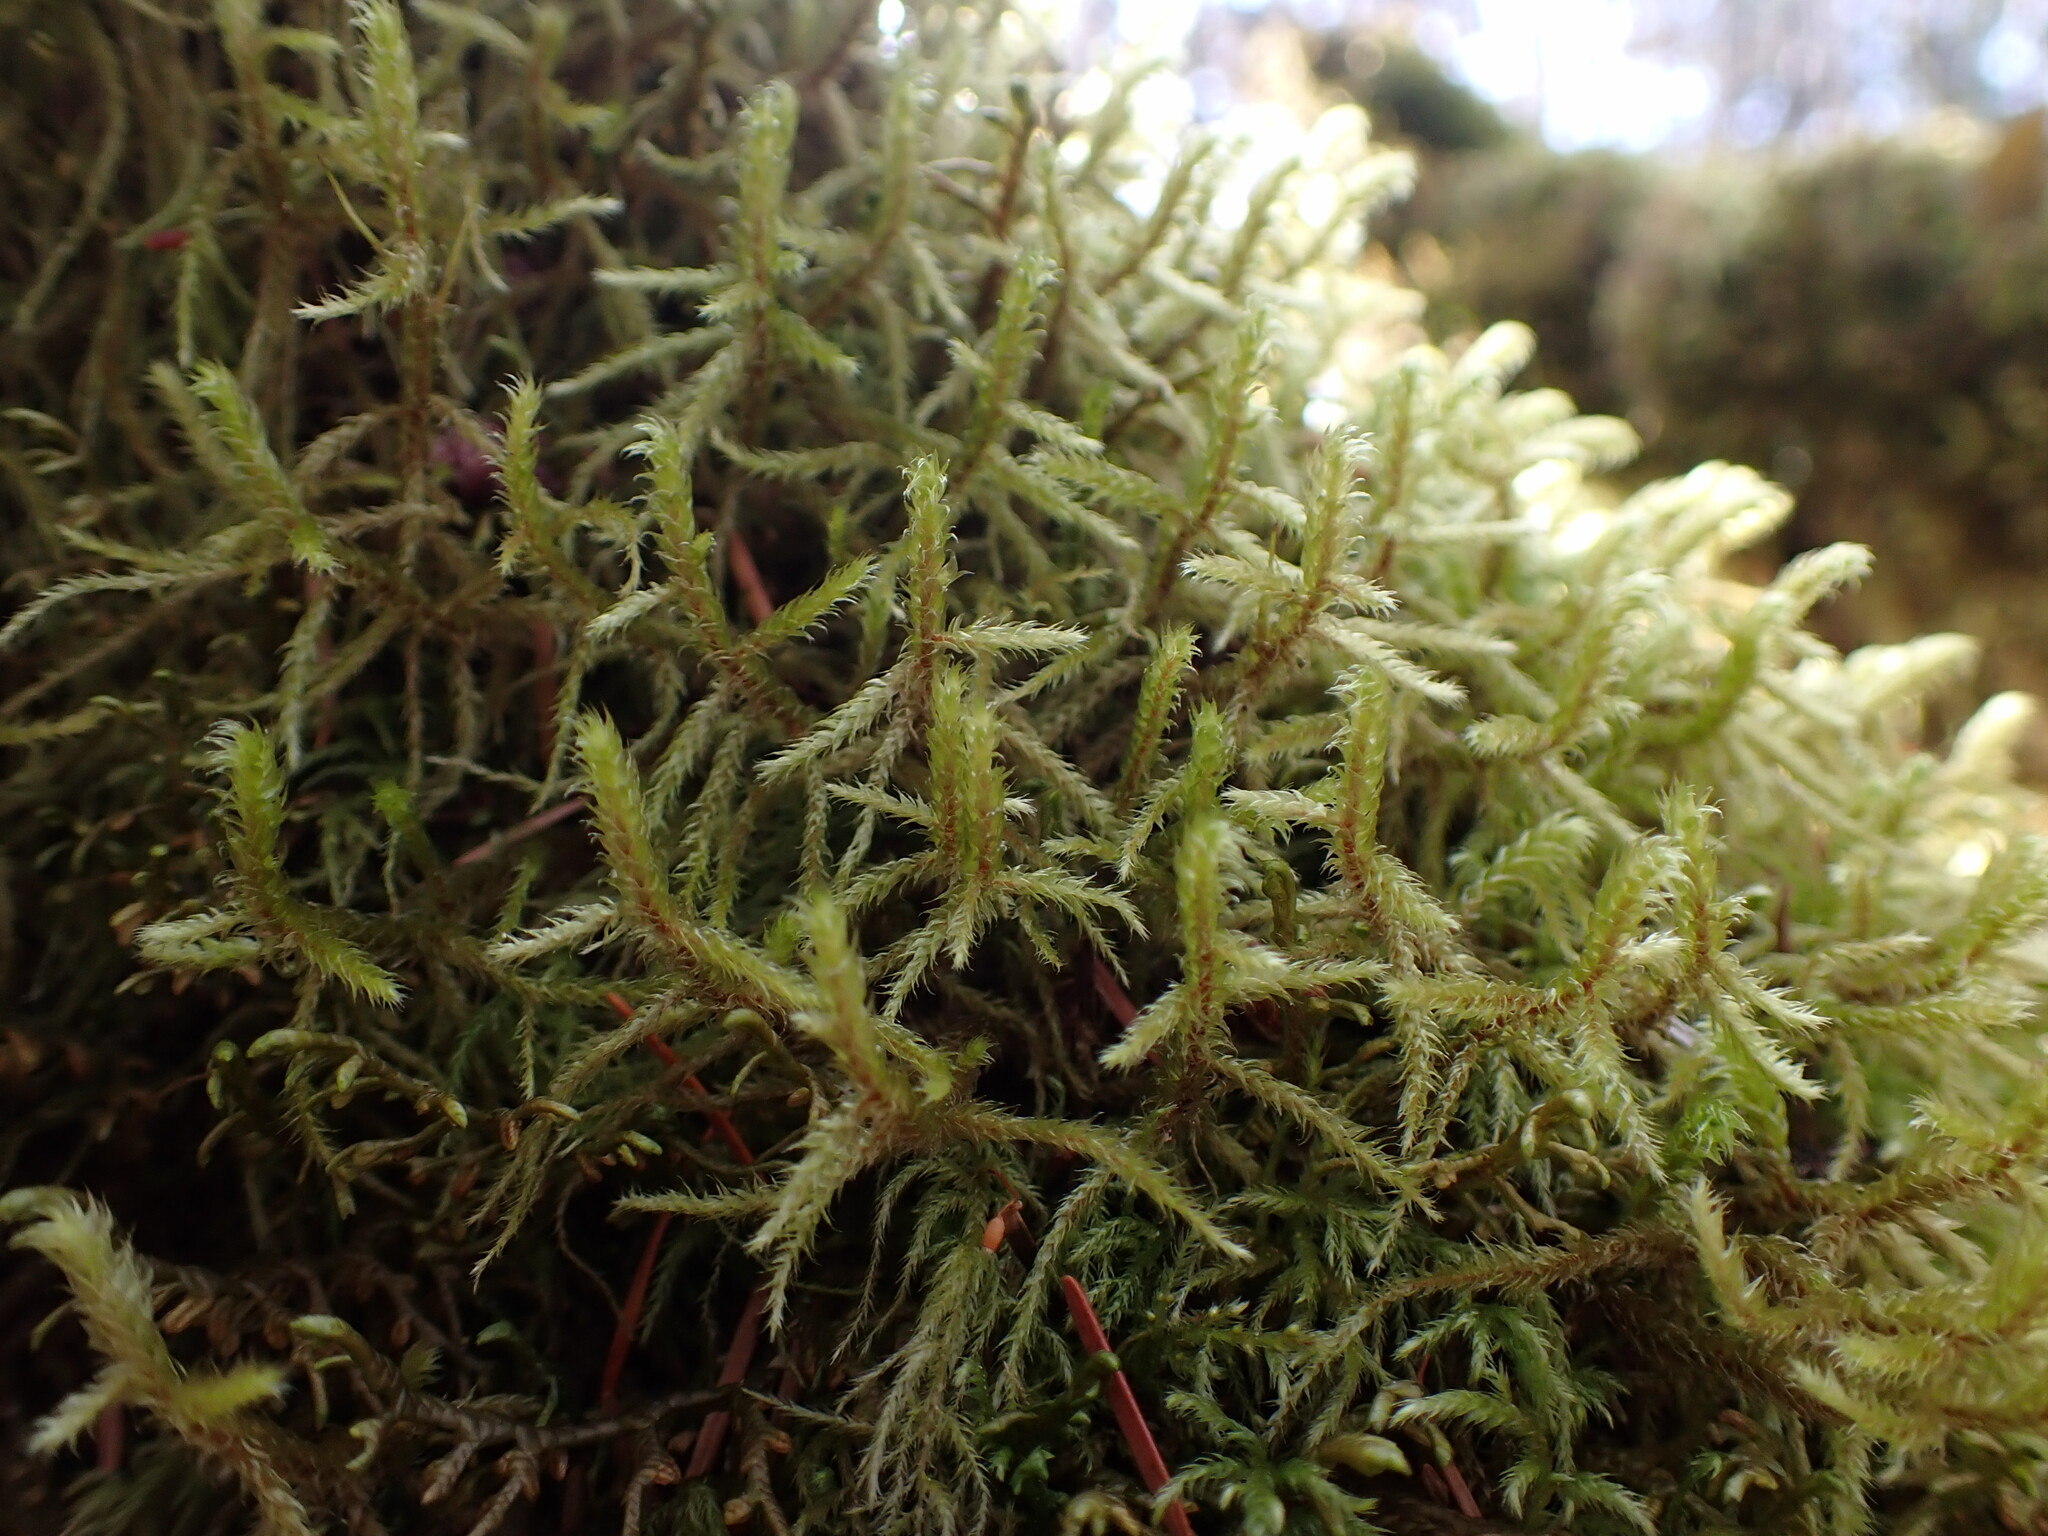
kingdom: Plantae
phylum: Bryophyta
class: Bryopsida
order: Hypnales
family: Antitrichiaceae
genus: Antitrichia
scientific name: Antitrichia curtipendula
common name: Pendulous wing-moss
